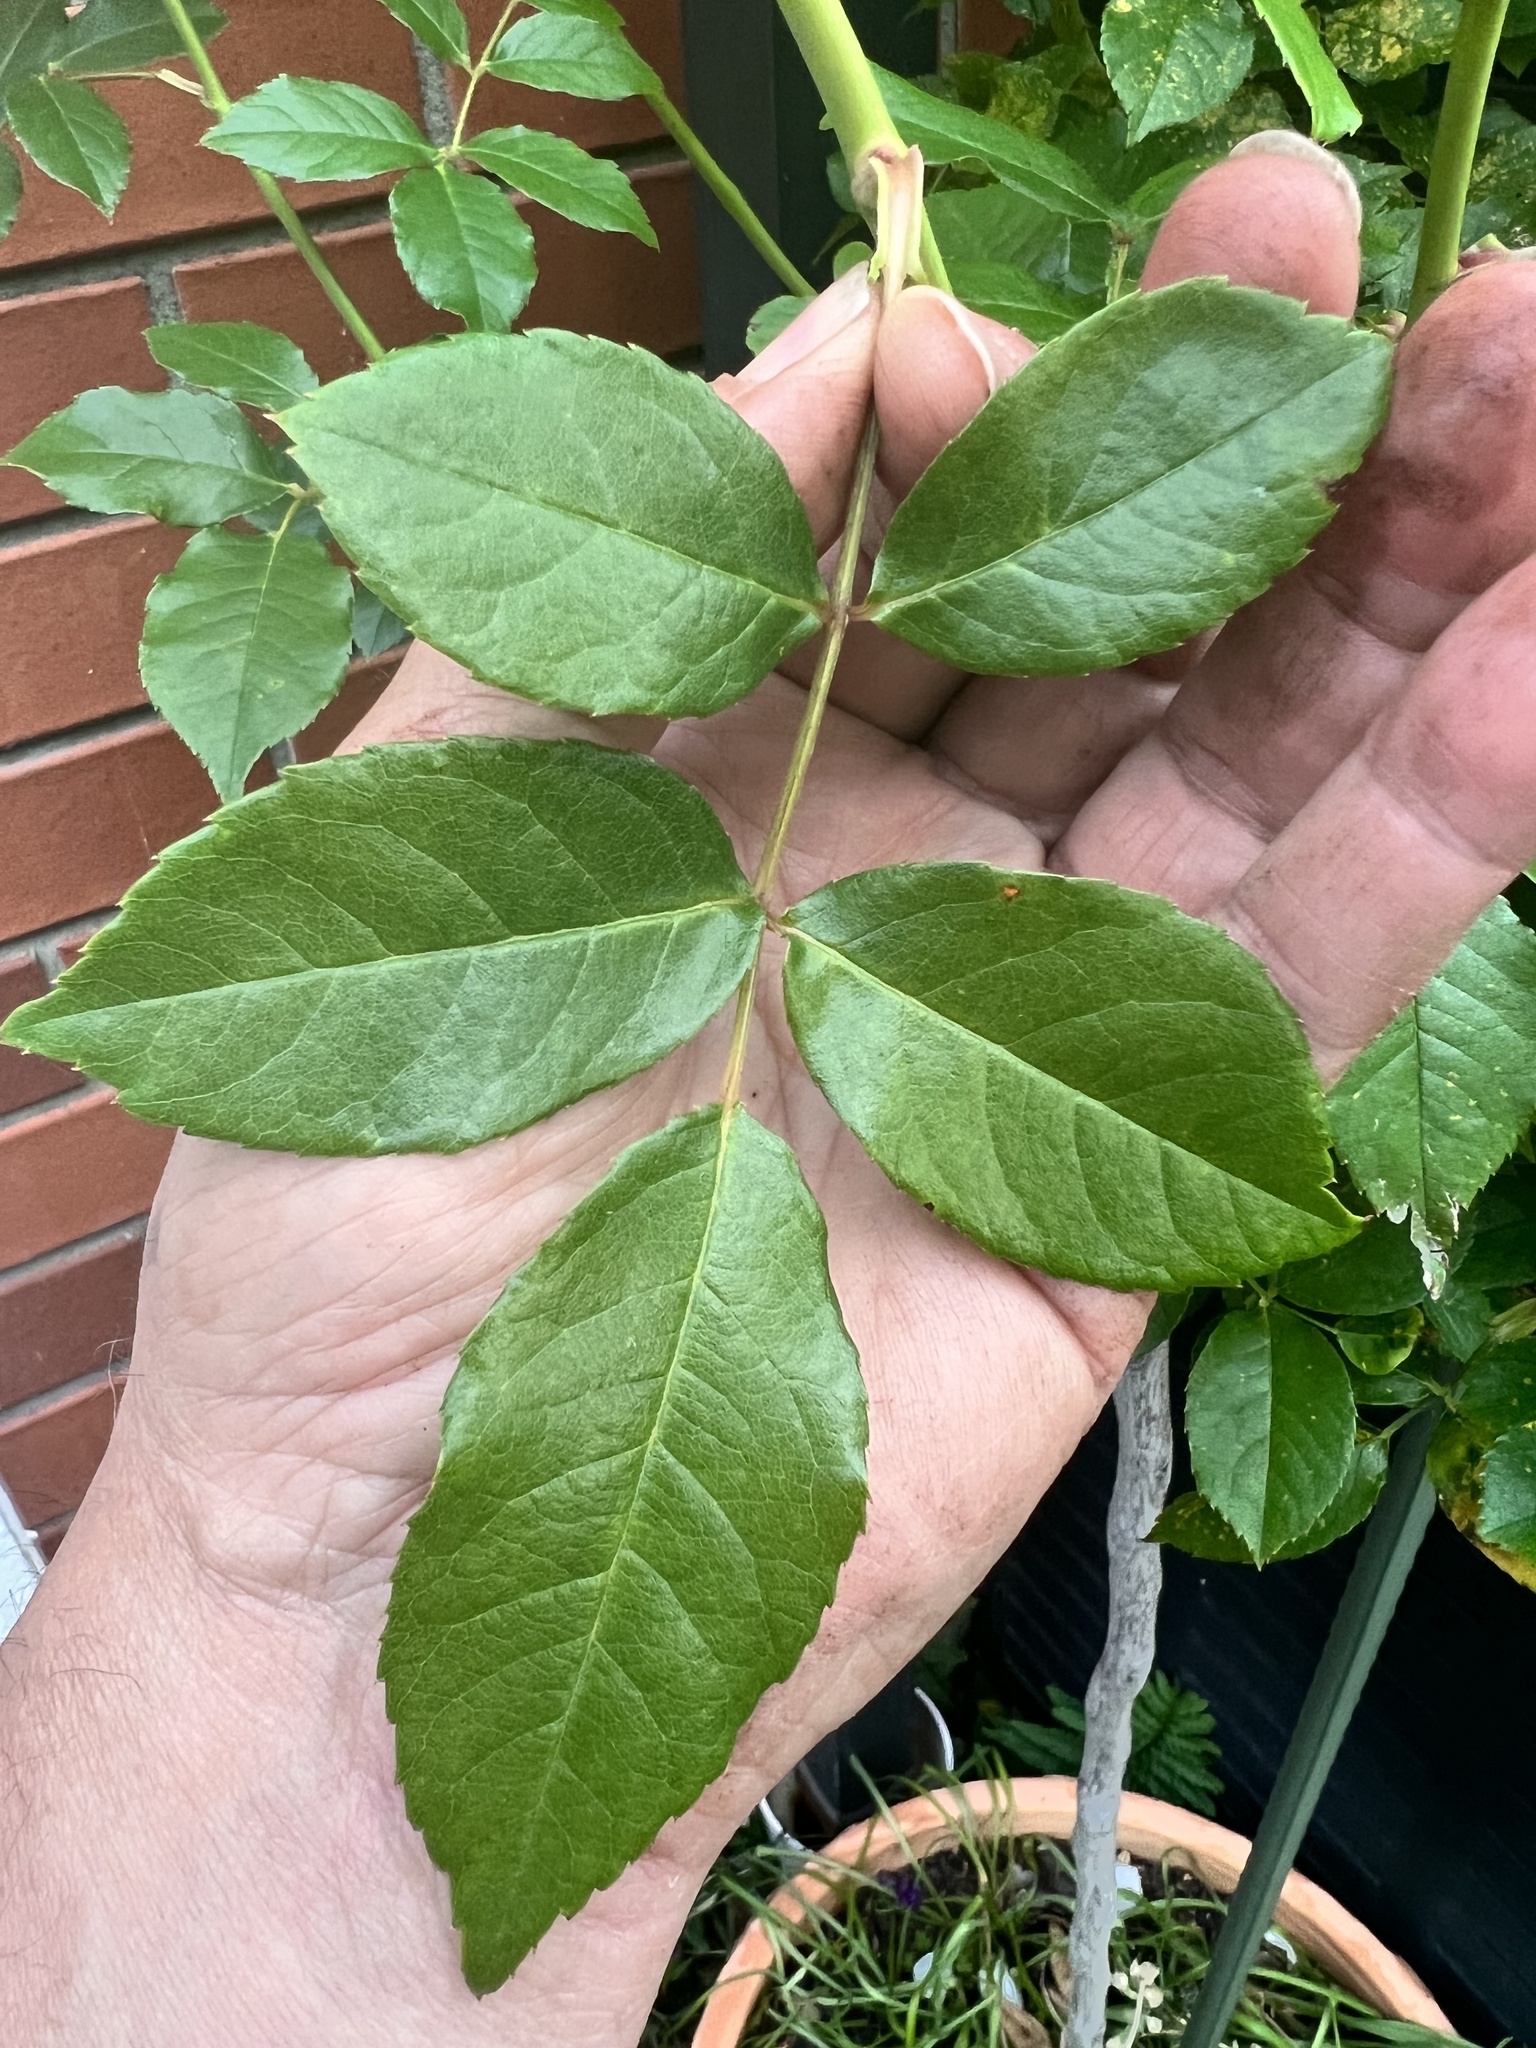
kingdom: Fungi
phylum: Basidiomycota
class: Pucciniomycetes
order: Pucciniales
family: Phragmidiaceae
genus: Phragmidium
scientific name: Phragmidium violaceum
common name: Violet bramble rust
